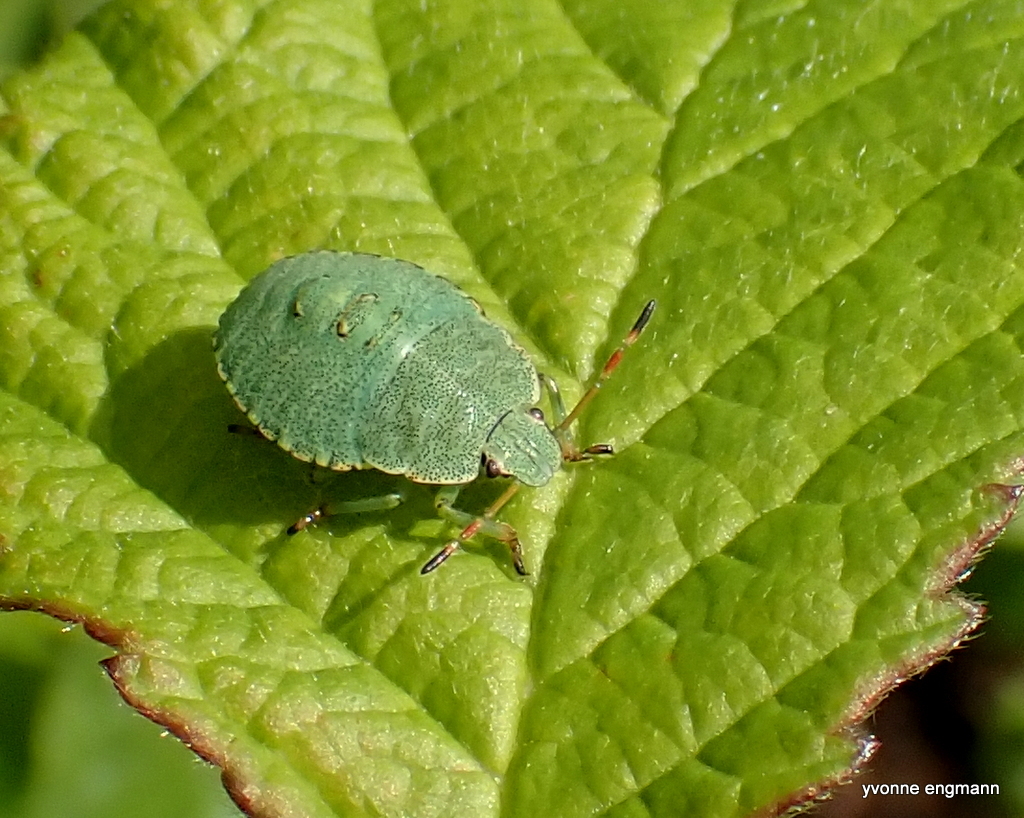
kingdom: Animalia
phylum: Arthropoda
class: Insecta
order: Hemiptera
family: Pentatomidae
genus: Palomena
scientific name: Palomena prasina
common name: Green shieldbug
